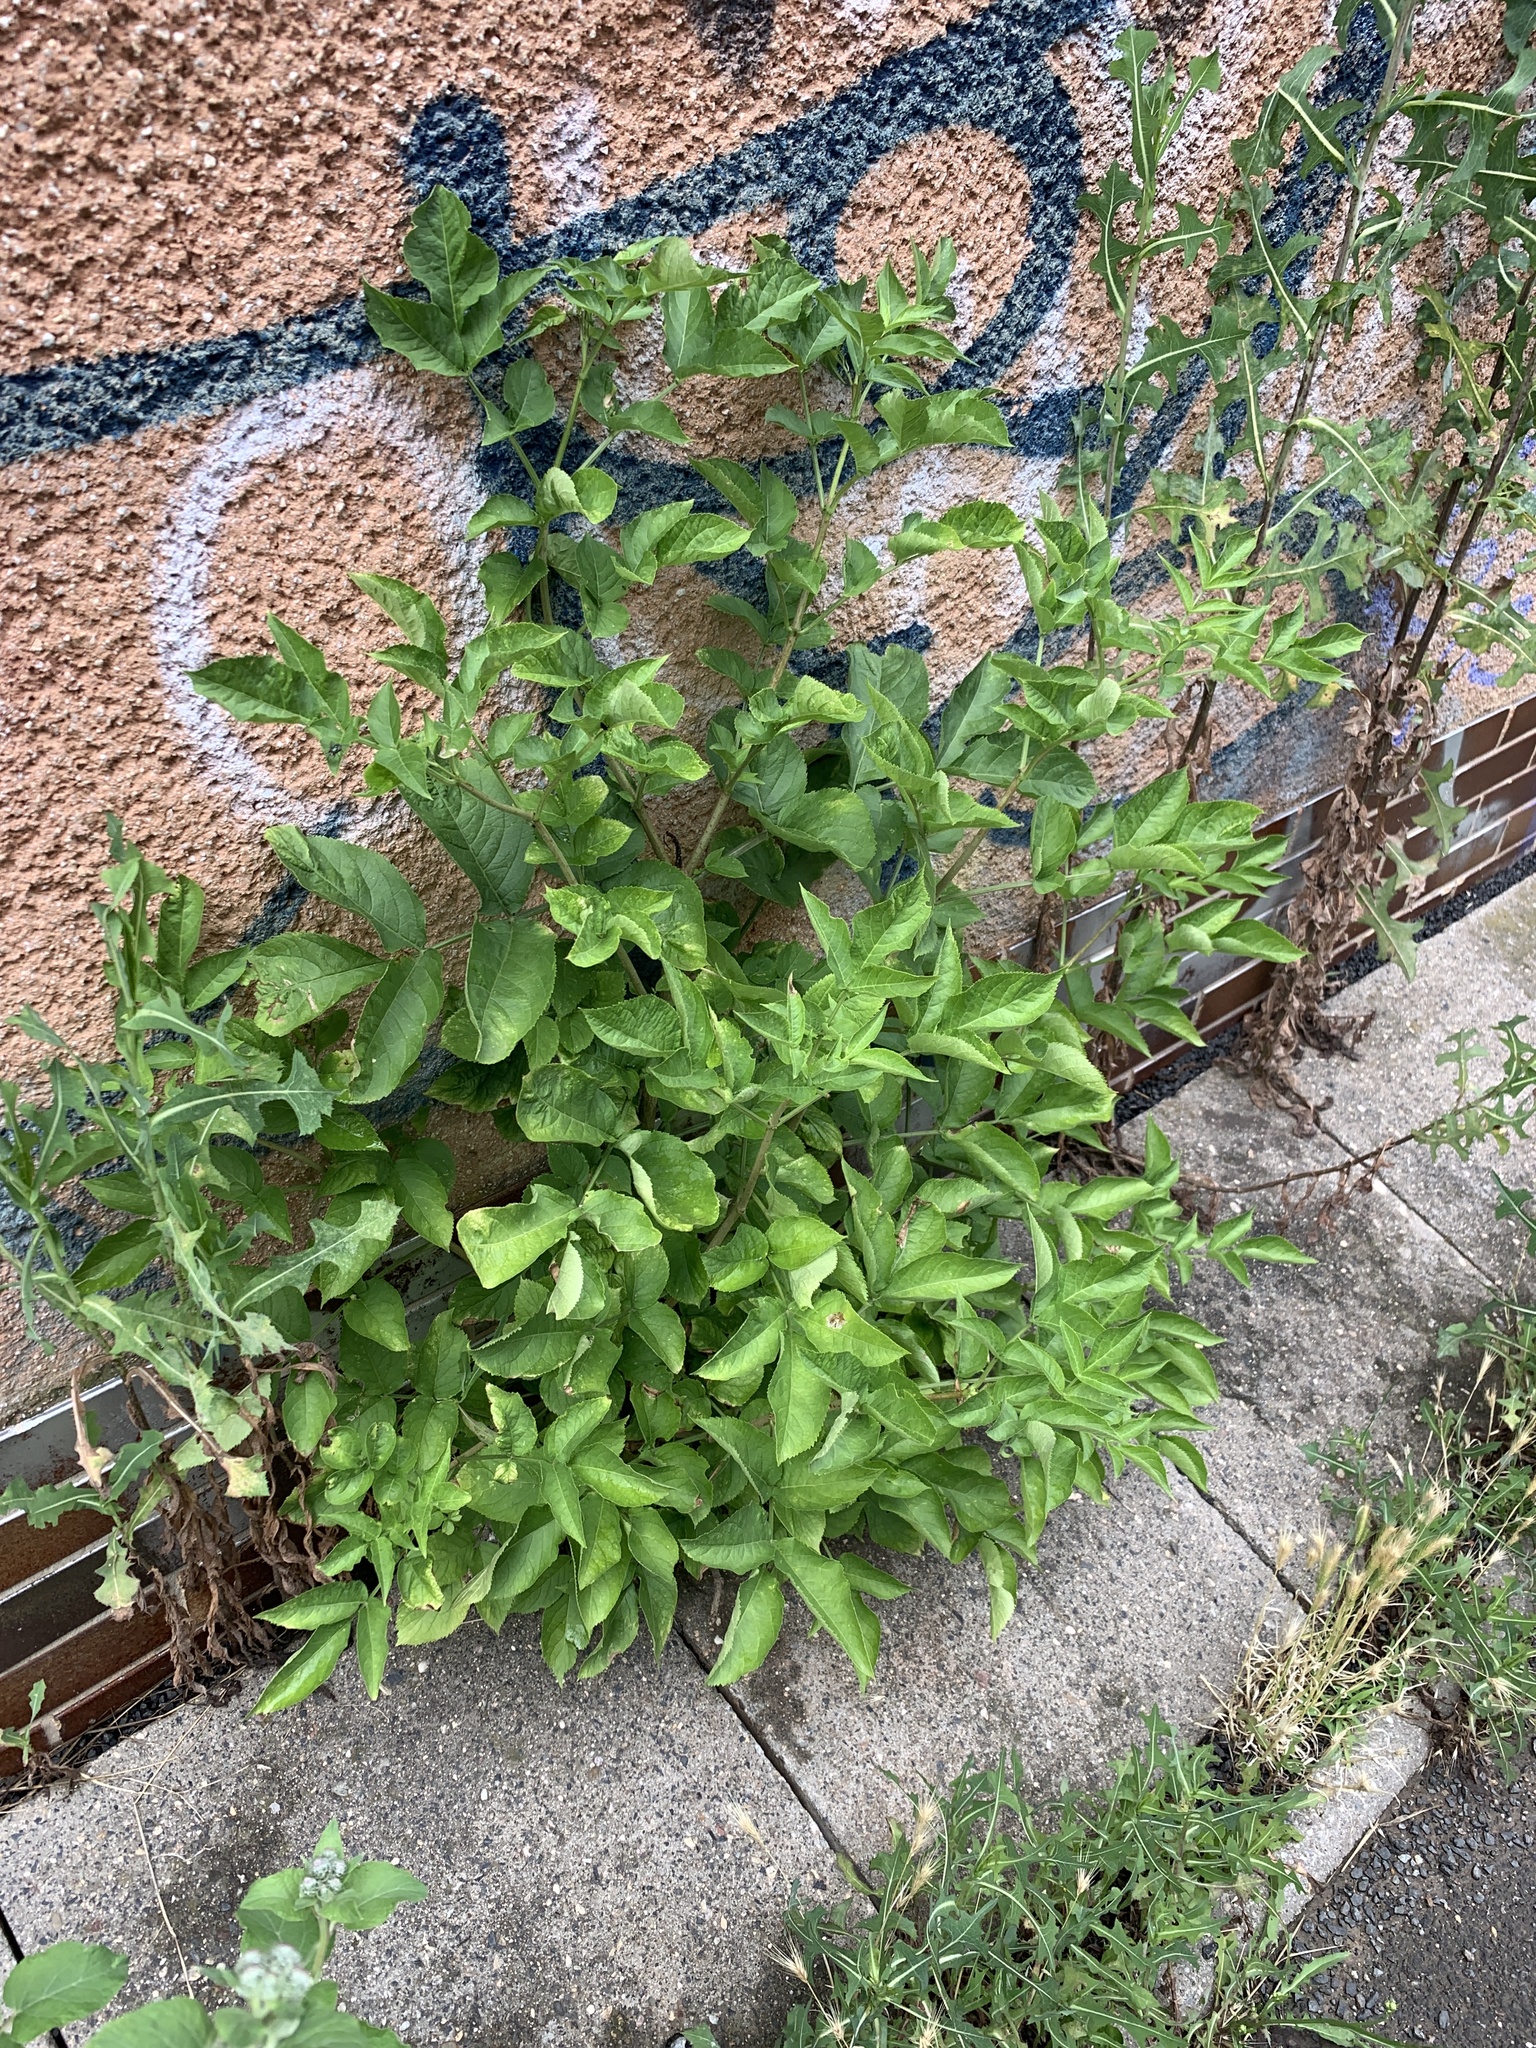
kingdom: Plantae
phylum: Tracheophyta
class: Magnoliopsida
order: Dipsacales
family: Viburnaceae
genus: Sambucus
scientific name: Sambucus nigra
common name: Elder
